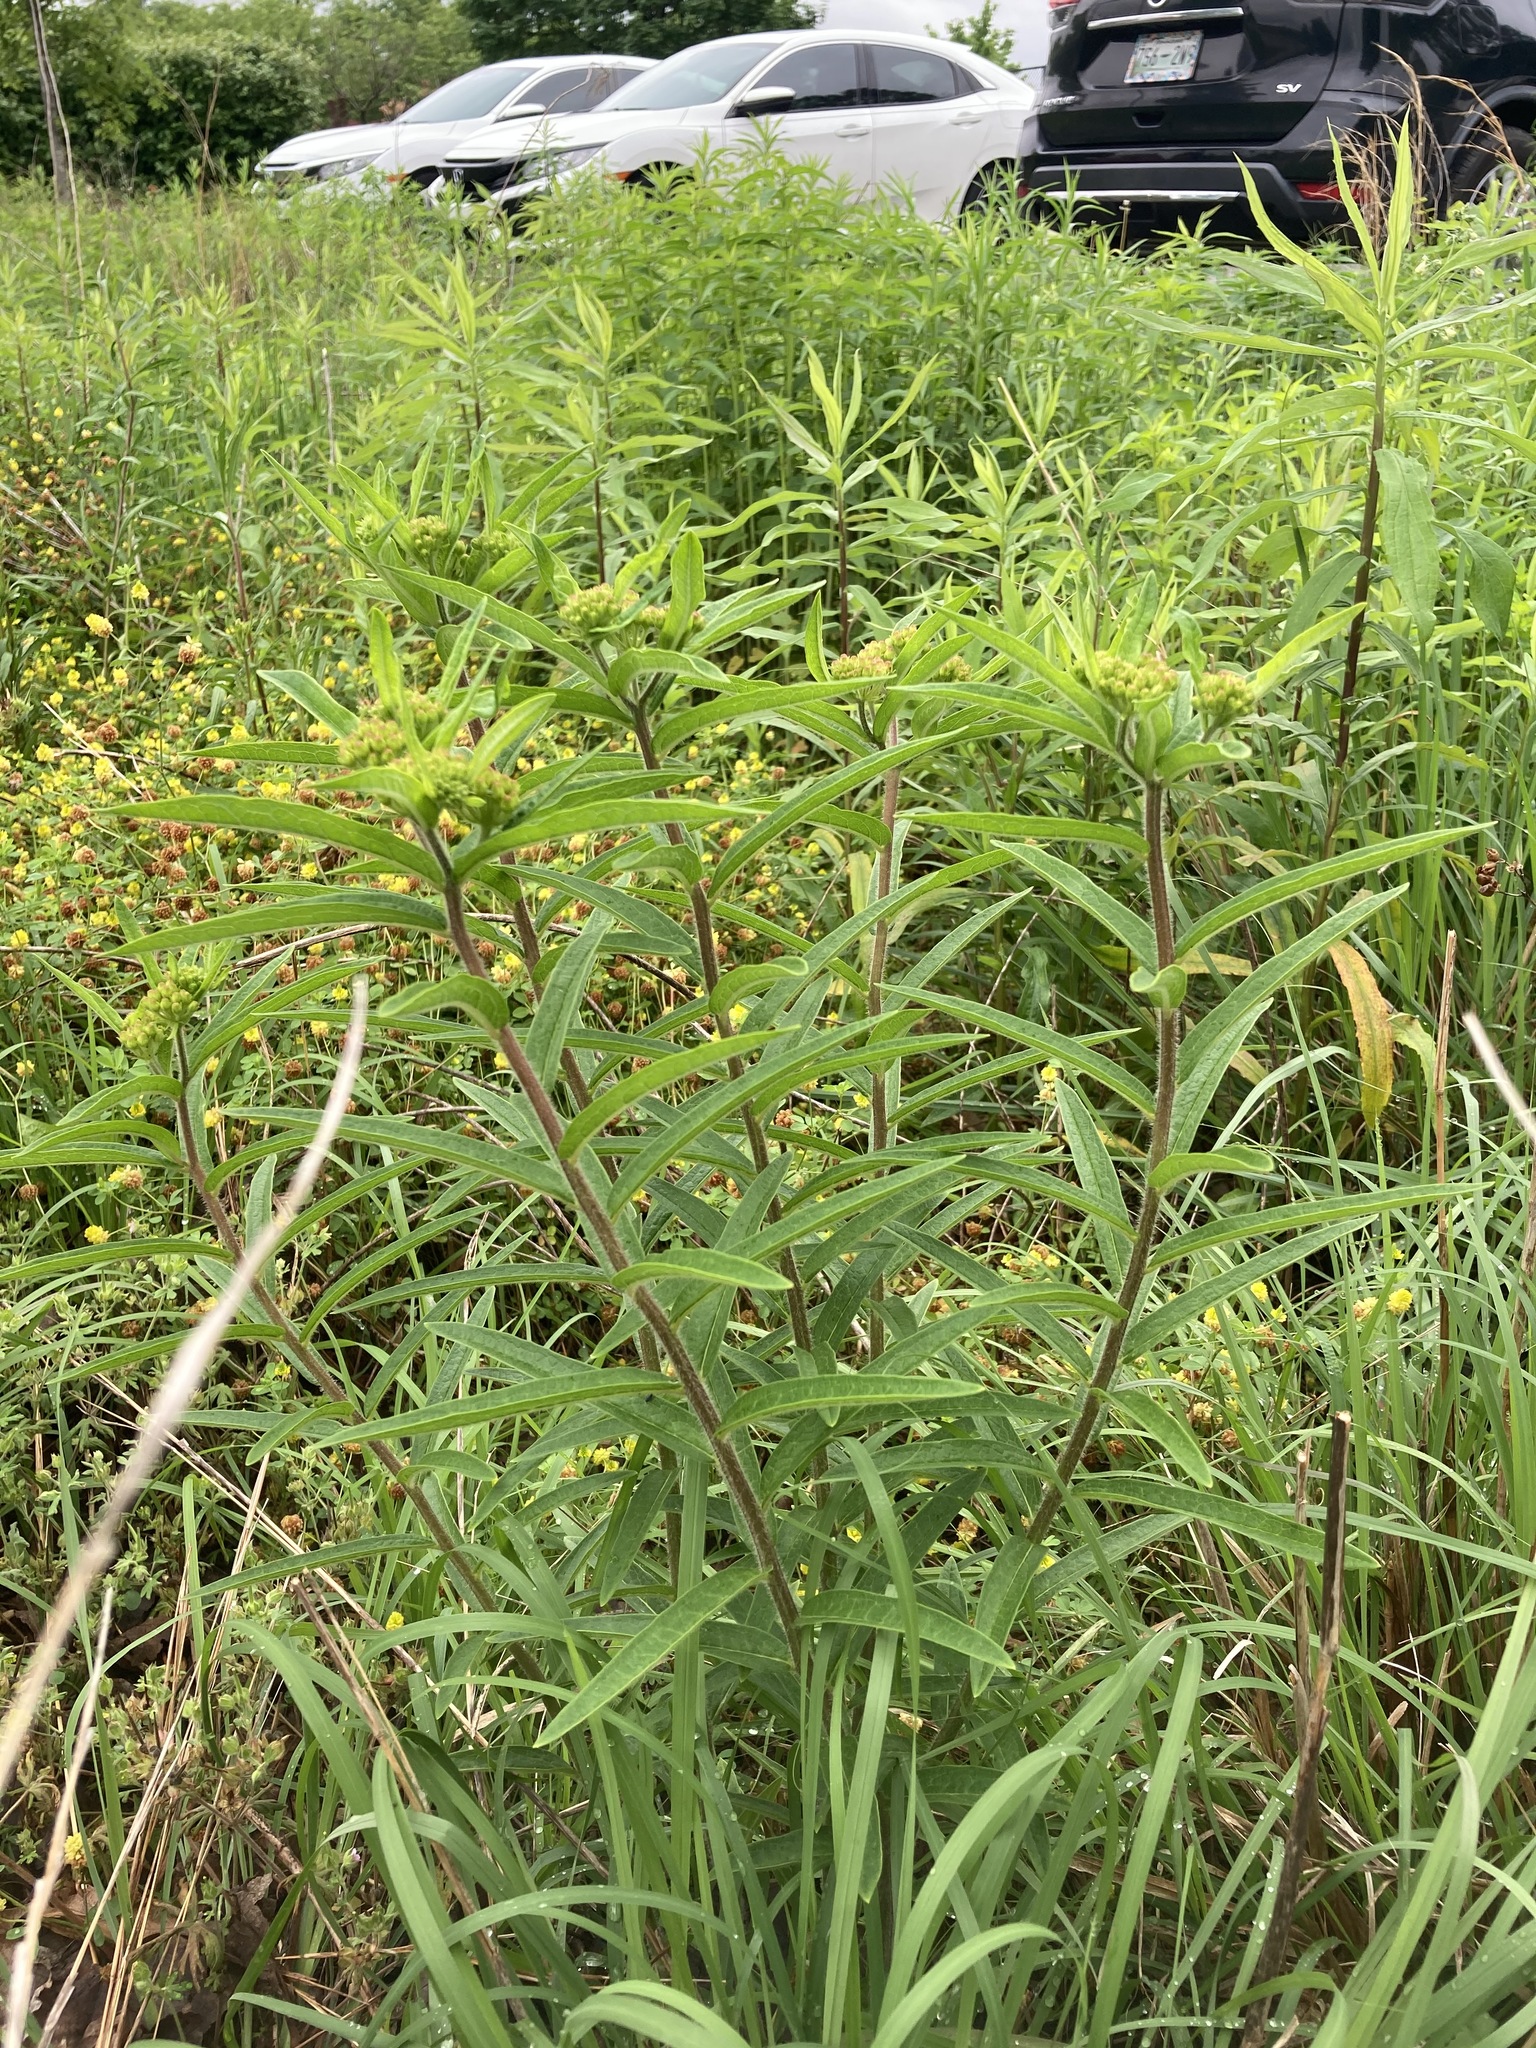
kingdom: Plantae
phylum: Tracheophyta
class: Magnoliopsida
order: Gentianales
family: Apocynaceae
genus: Asclepias
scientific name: Asclepias tuberosa
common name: Butterfly milkweed
